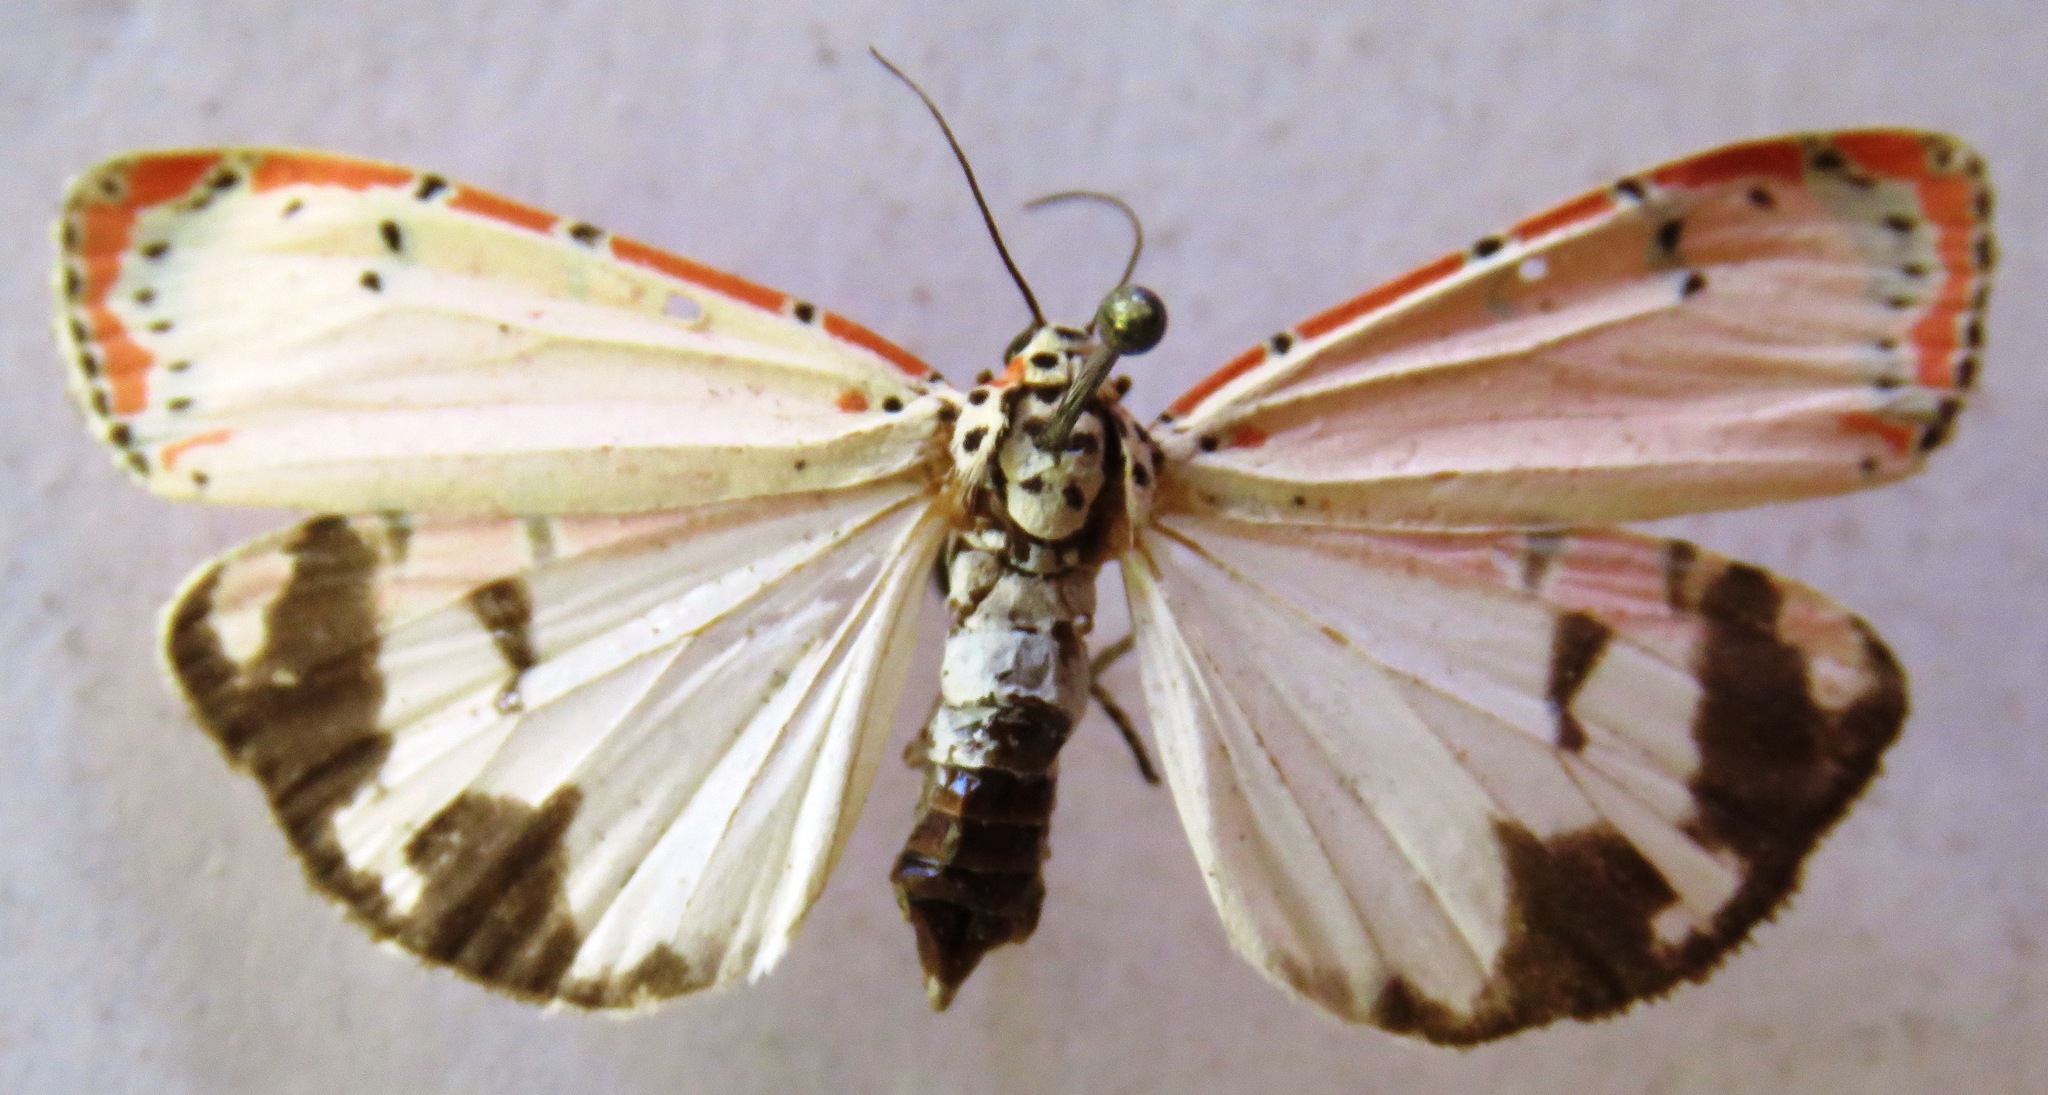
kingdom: Animalia
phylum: Arthropoda
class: Insecta
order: Lepidoptera
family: Erebidae
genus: Utetheisa
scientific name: Utetheisa ornatrix
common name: Beautiful utetheisa
